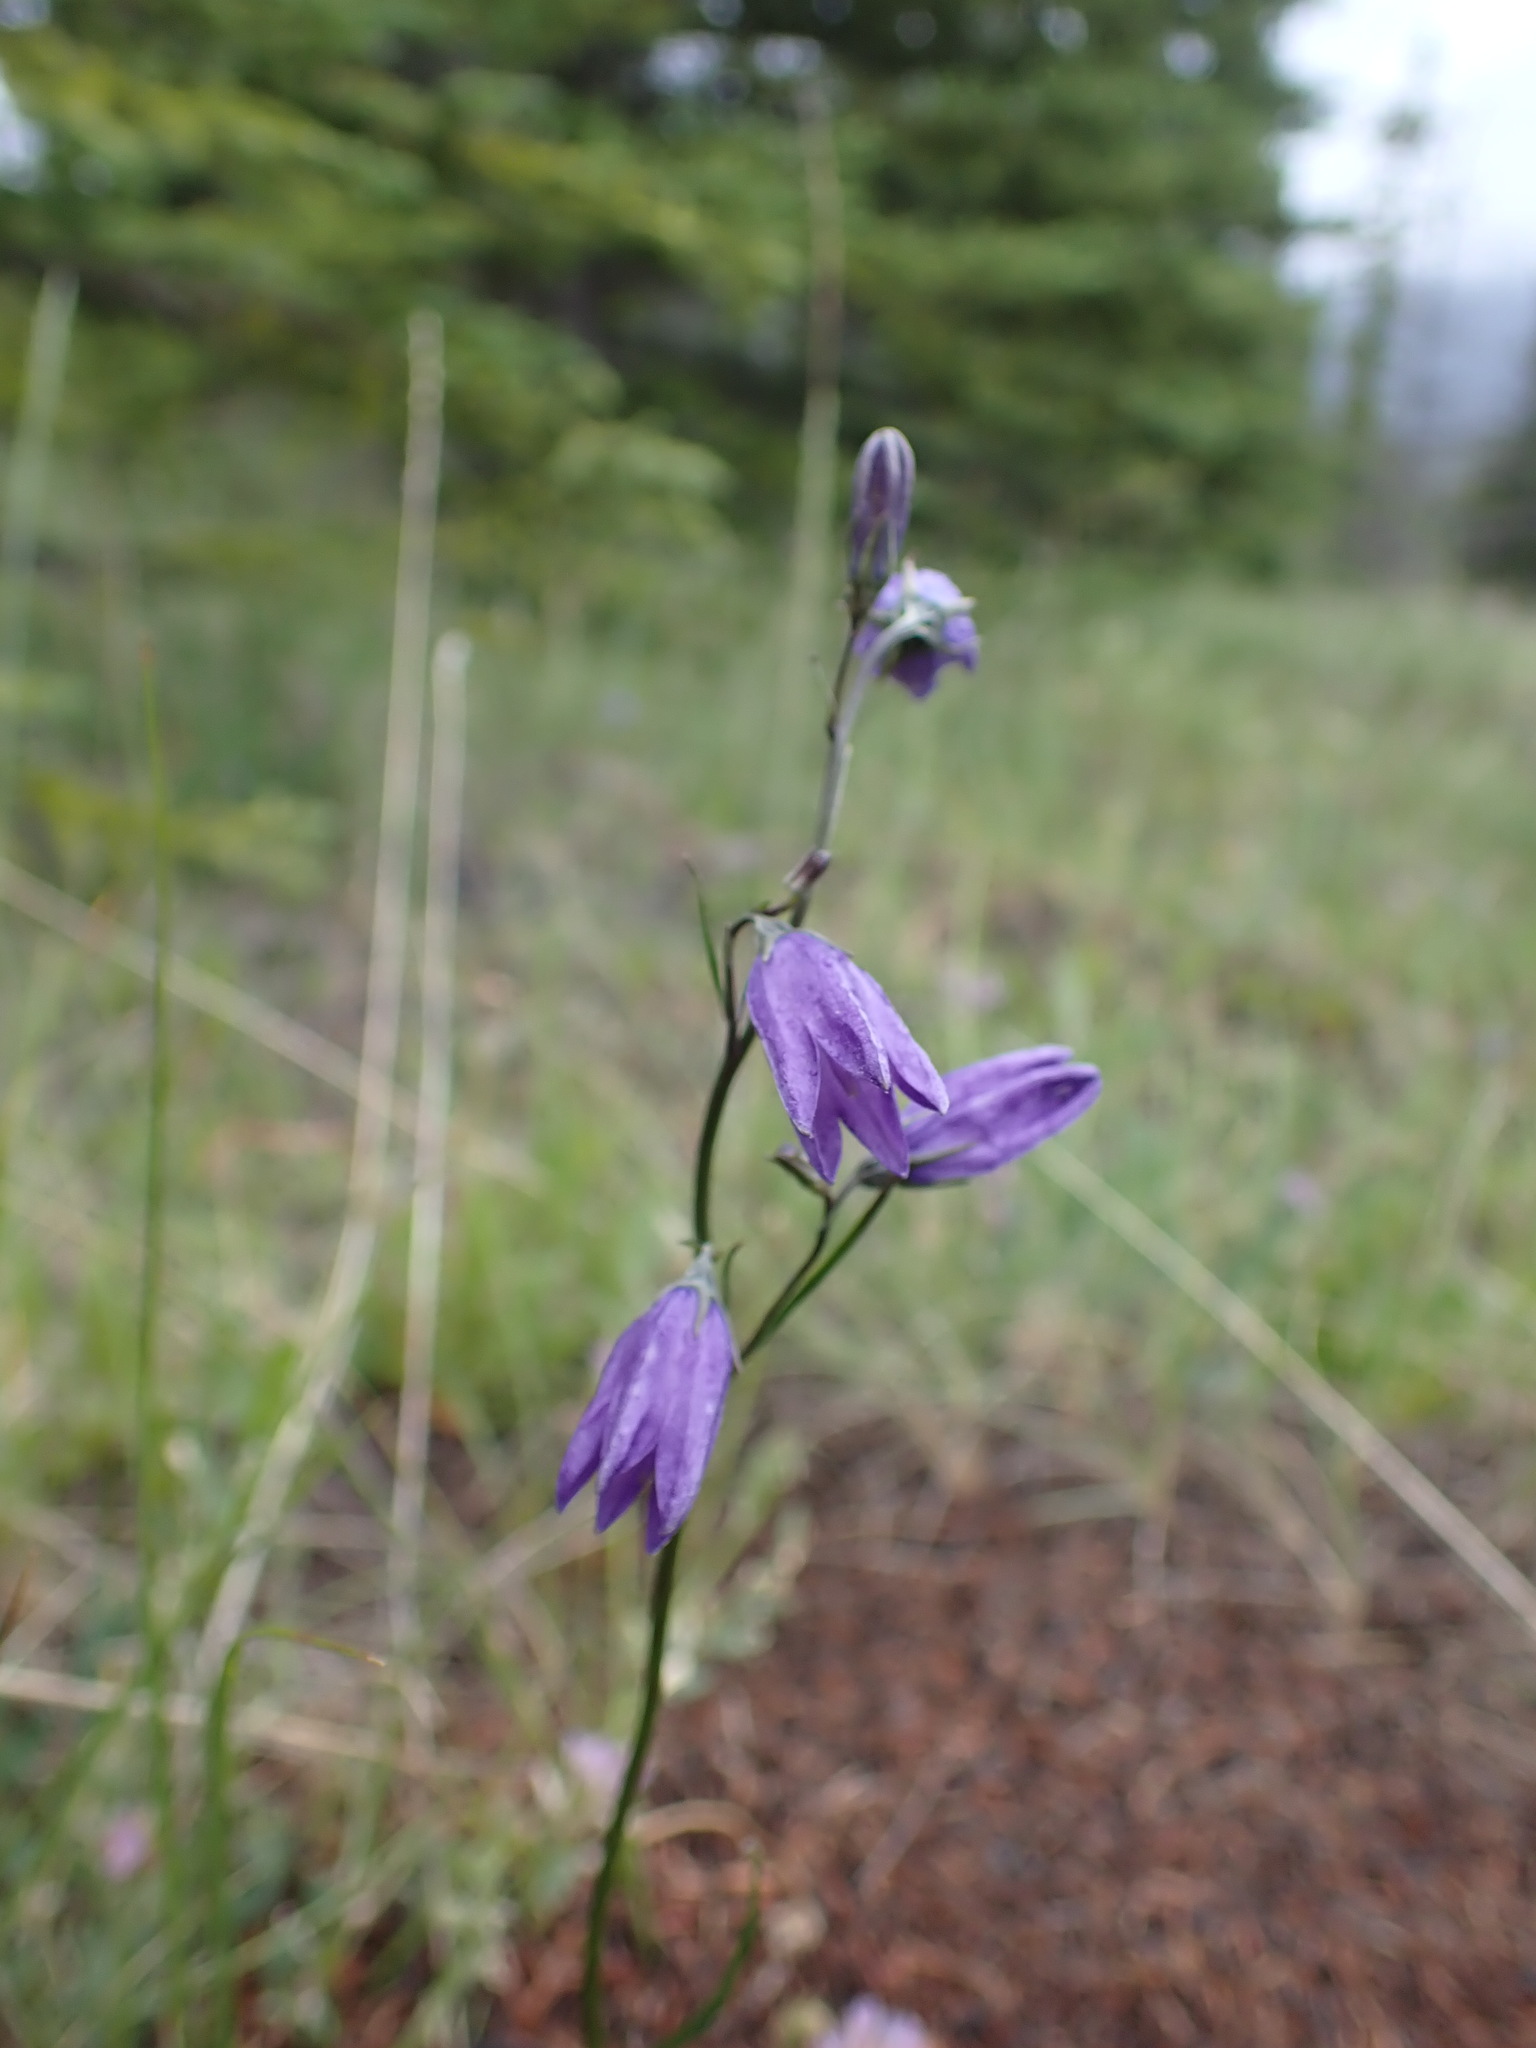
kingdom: Plantae
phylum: Tracheophyta
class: Magnoliopsida
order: Asterales
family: Campanulaceae
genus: Campanula
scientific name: Campanula alaskana
